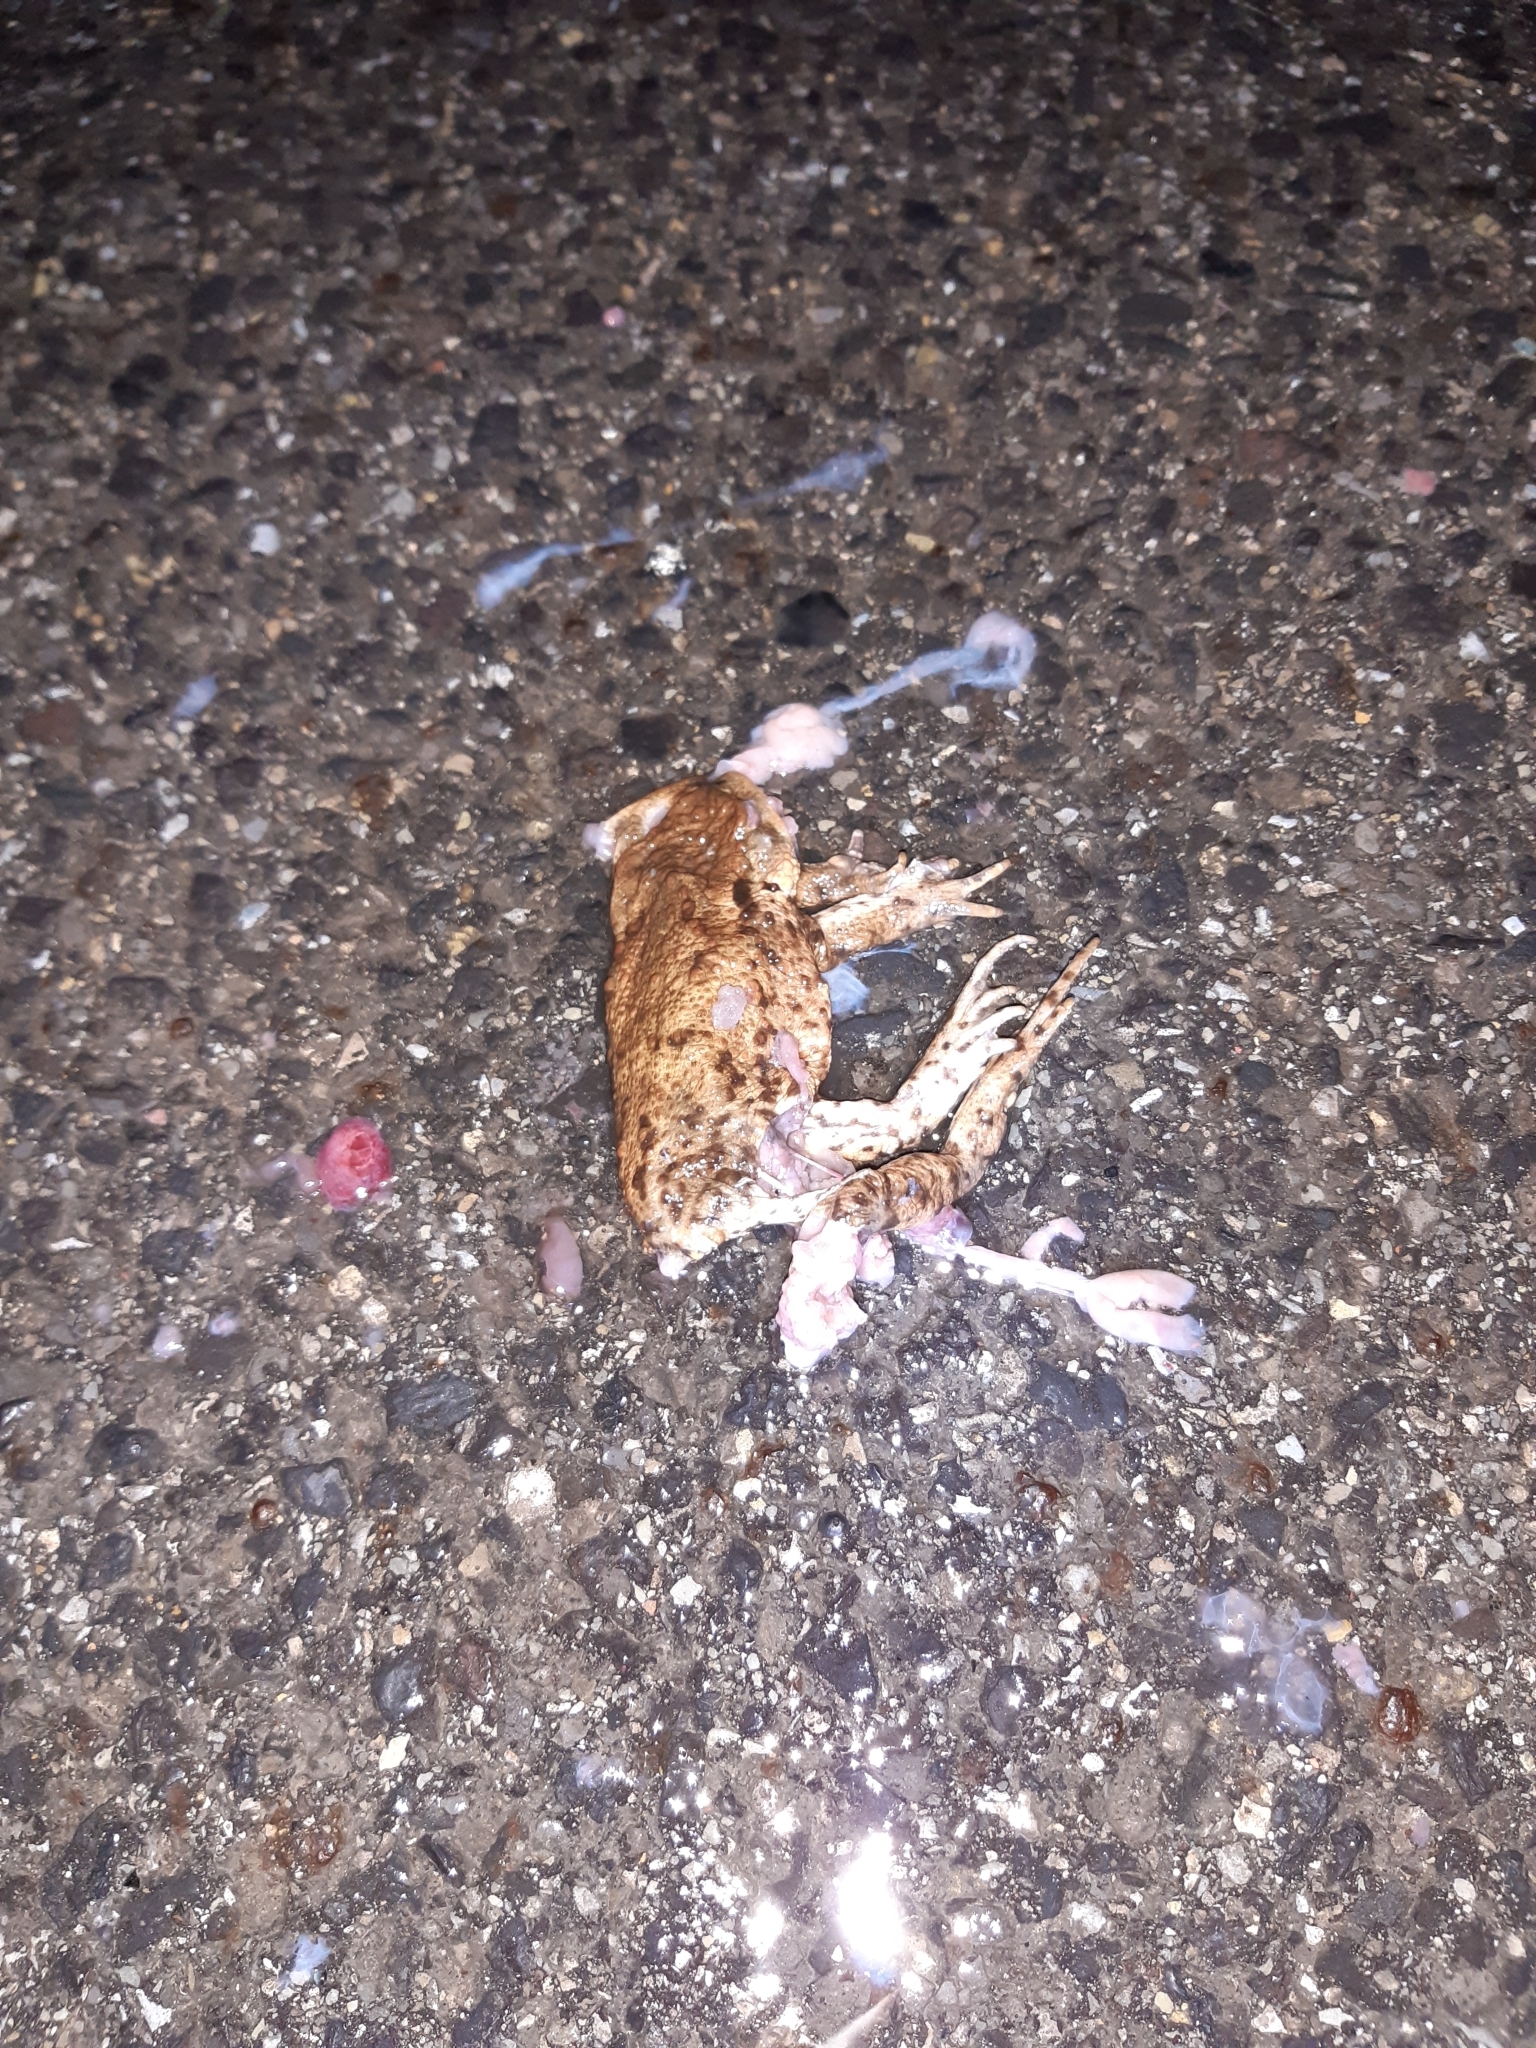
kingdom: Animalia
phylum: Chordata
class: Amphibia
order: Anura
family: Bufonidae
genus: Bufo
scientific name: Bufo bufo
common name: Common toad
